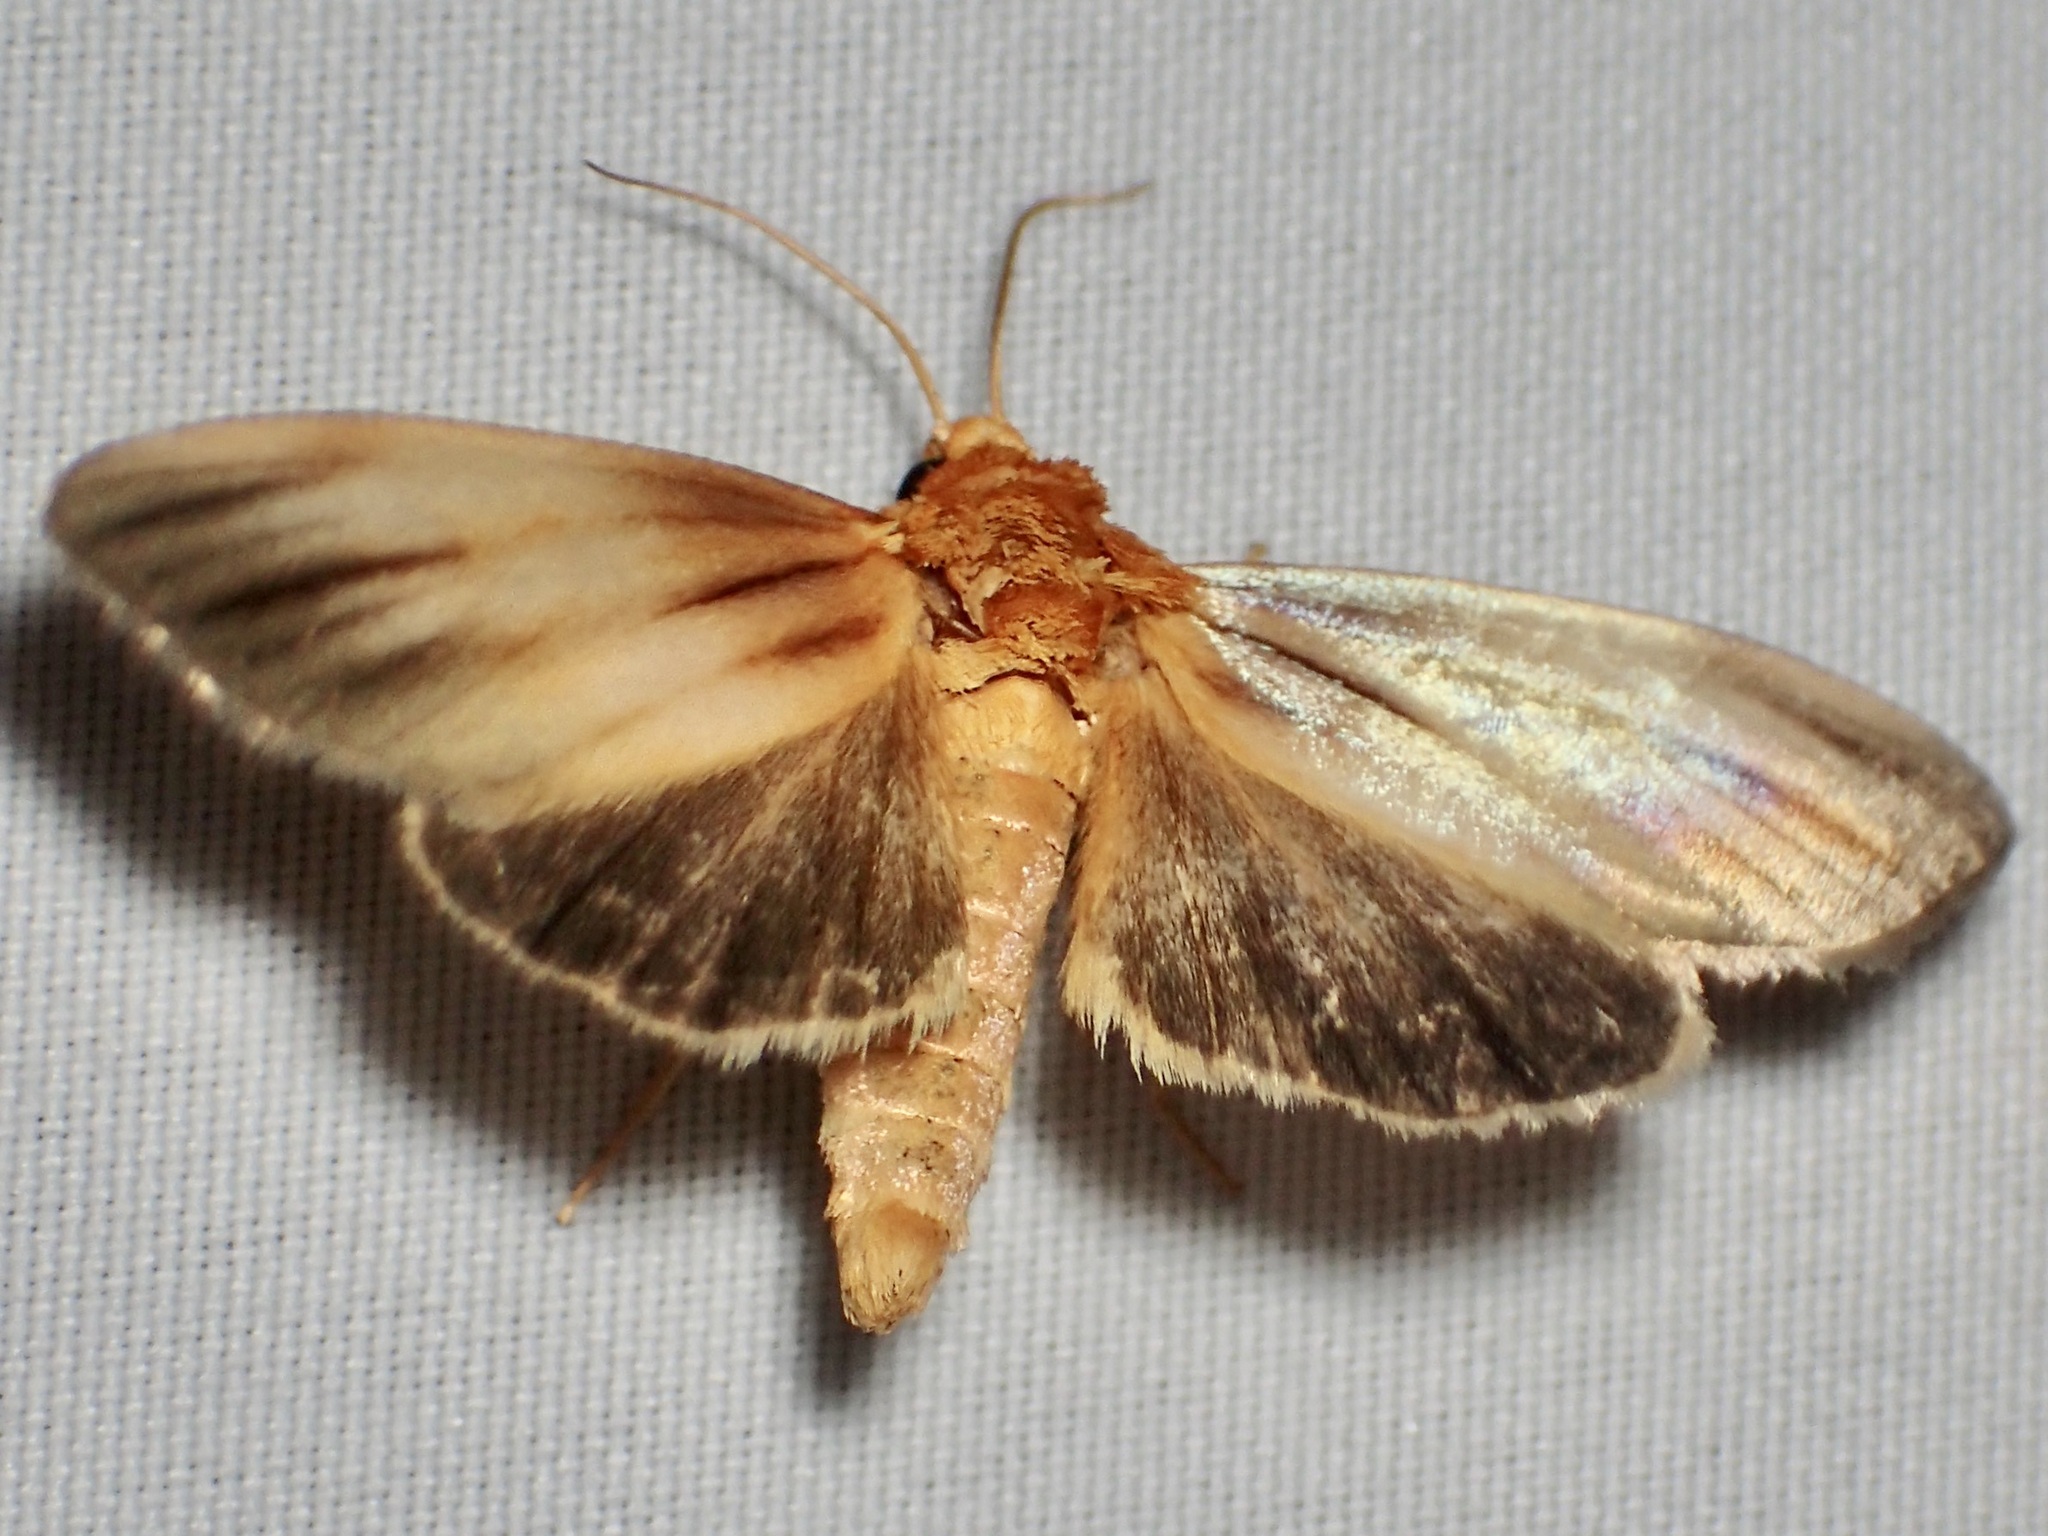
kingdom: Animalia
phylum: Arthropoda
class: Insecta
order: Lepidoptera
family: Noctuidae
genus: Antaplaga
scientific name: Antaplaga plesioglauca
